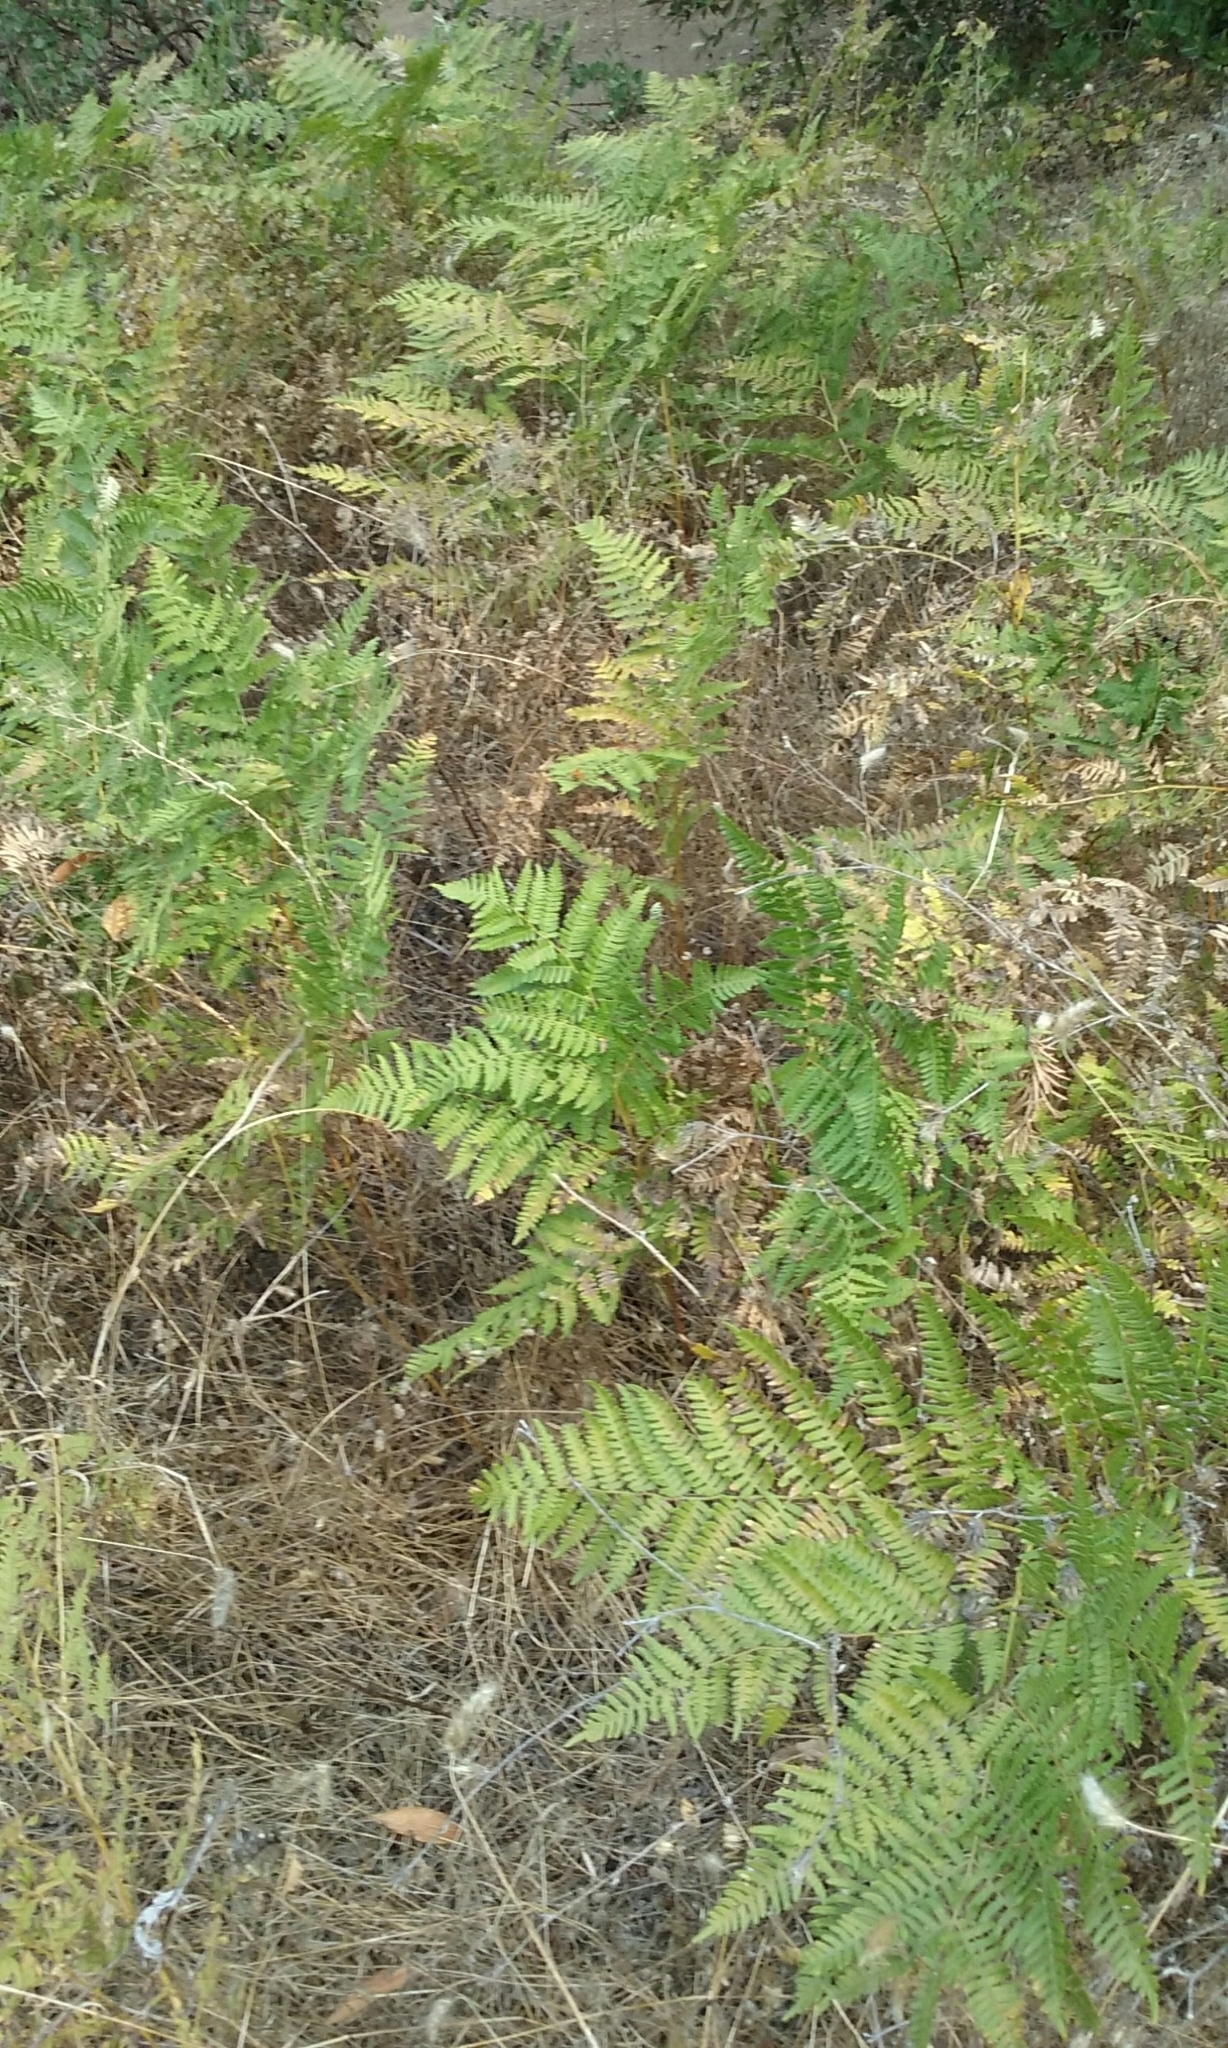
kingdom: Plantae
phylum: Tracheophyta
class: Polypodiopsida
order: Polypodiales
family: Dennstaedtiaceae
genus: Pteridium
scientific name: Pteridium aquilinum
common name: Bracken
